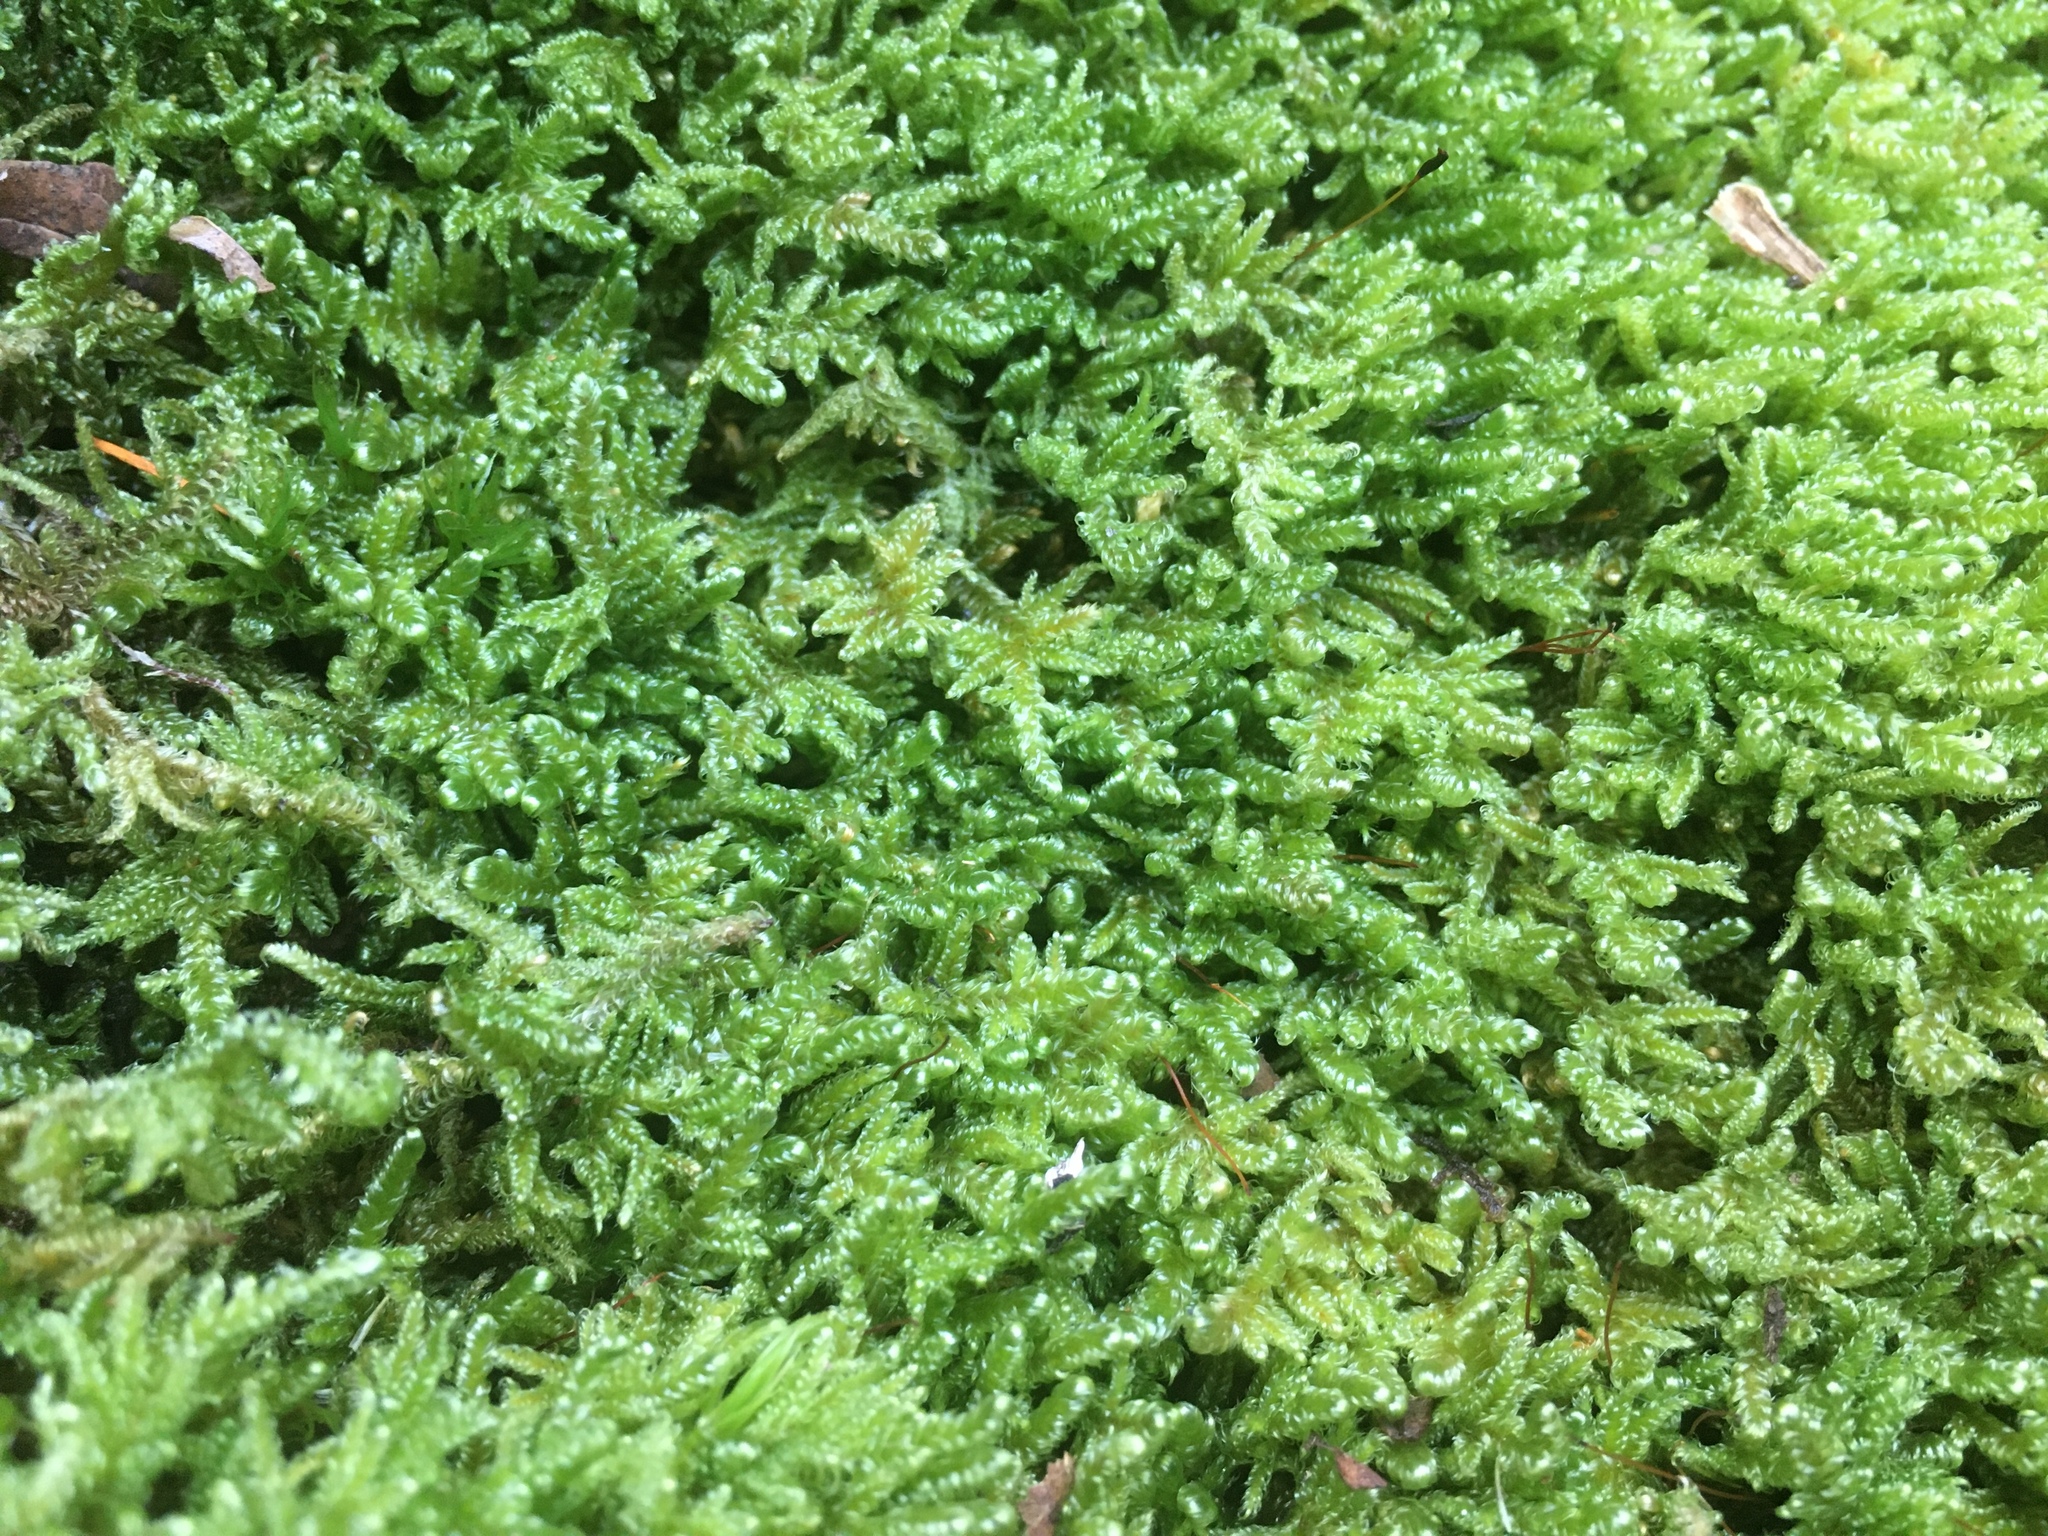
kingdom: Plantae
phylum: Bryophyta
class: Bryopsida
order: Hypnales
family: Callicladiaceae
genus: Callicladium
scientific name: Callicladium imponens
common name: Brocade moss
